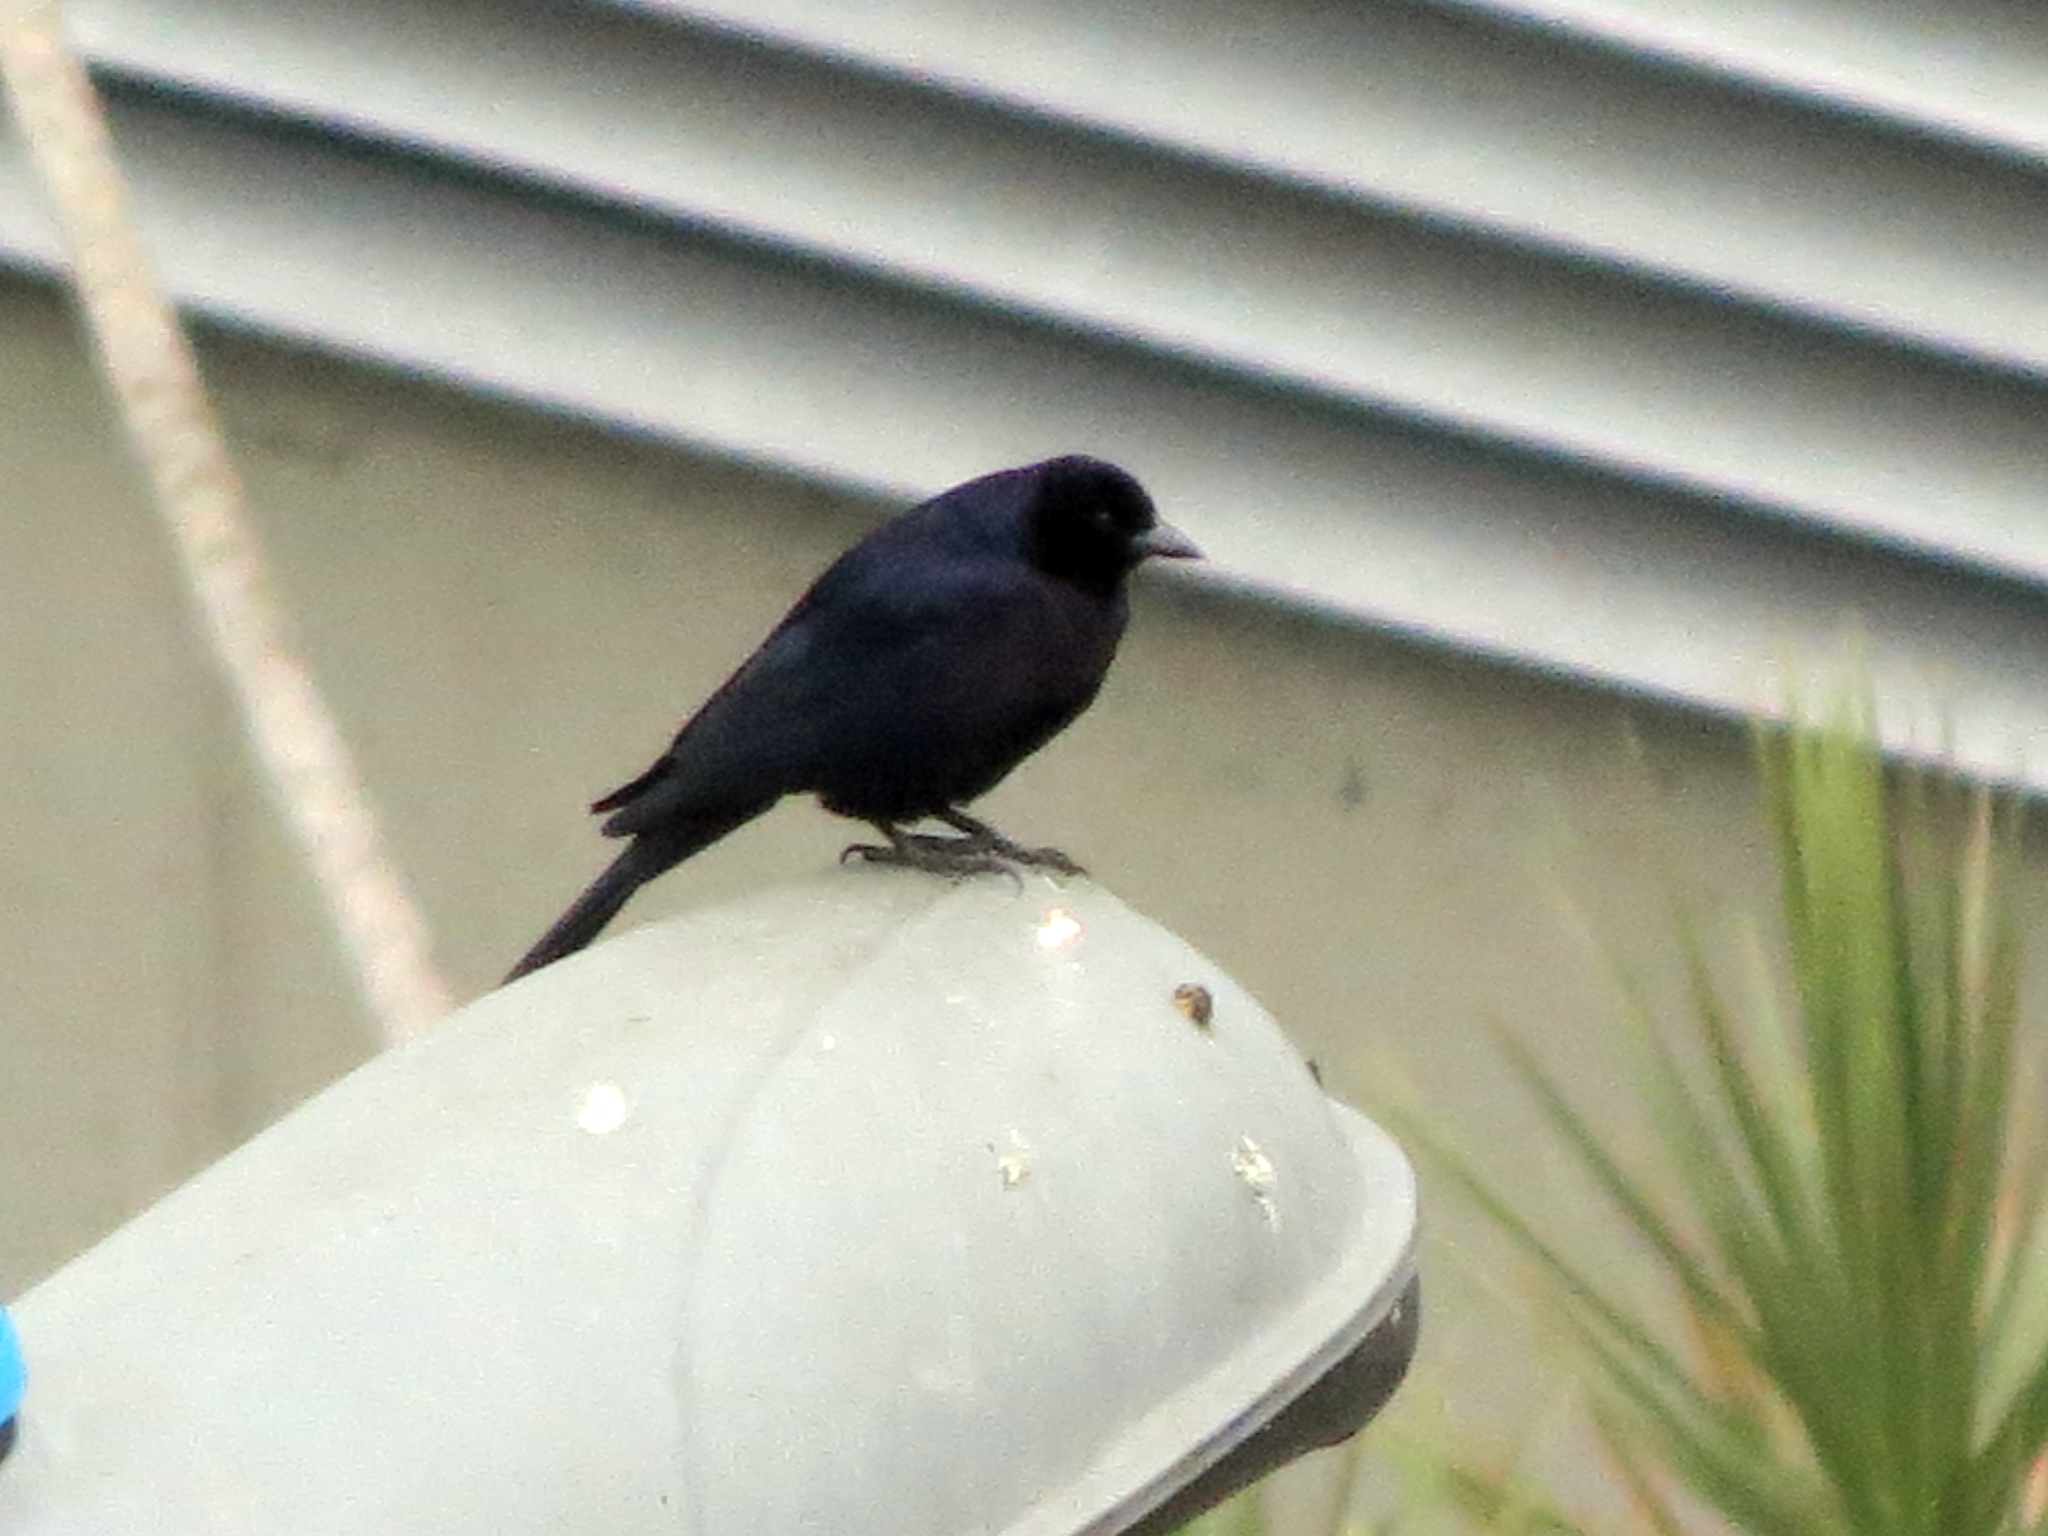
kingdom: Animalia
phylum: Chordata
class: Aves
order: Passeriformes
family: Icteridae
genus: Molothrus
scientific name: Molothrus bonariensis
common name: Shiny cowbird
